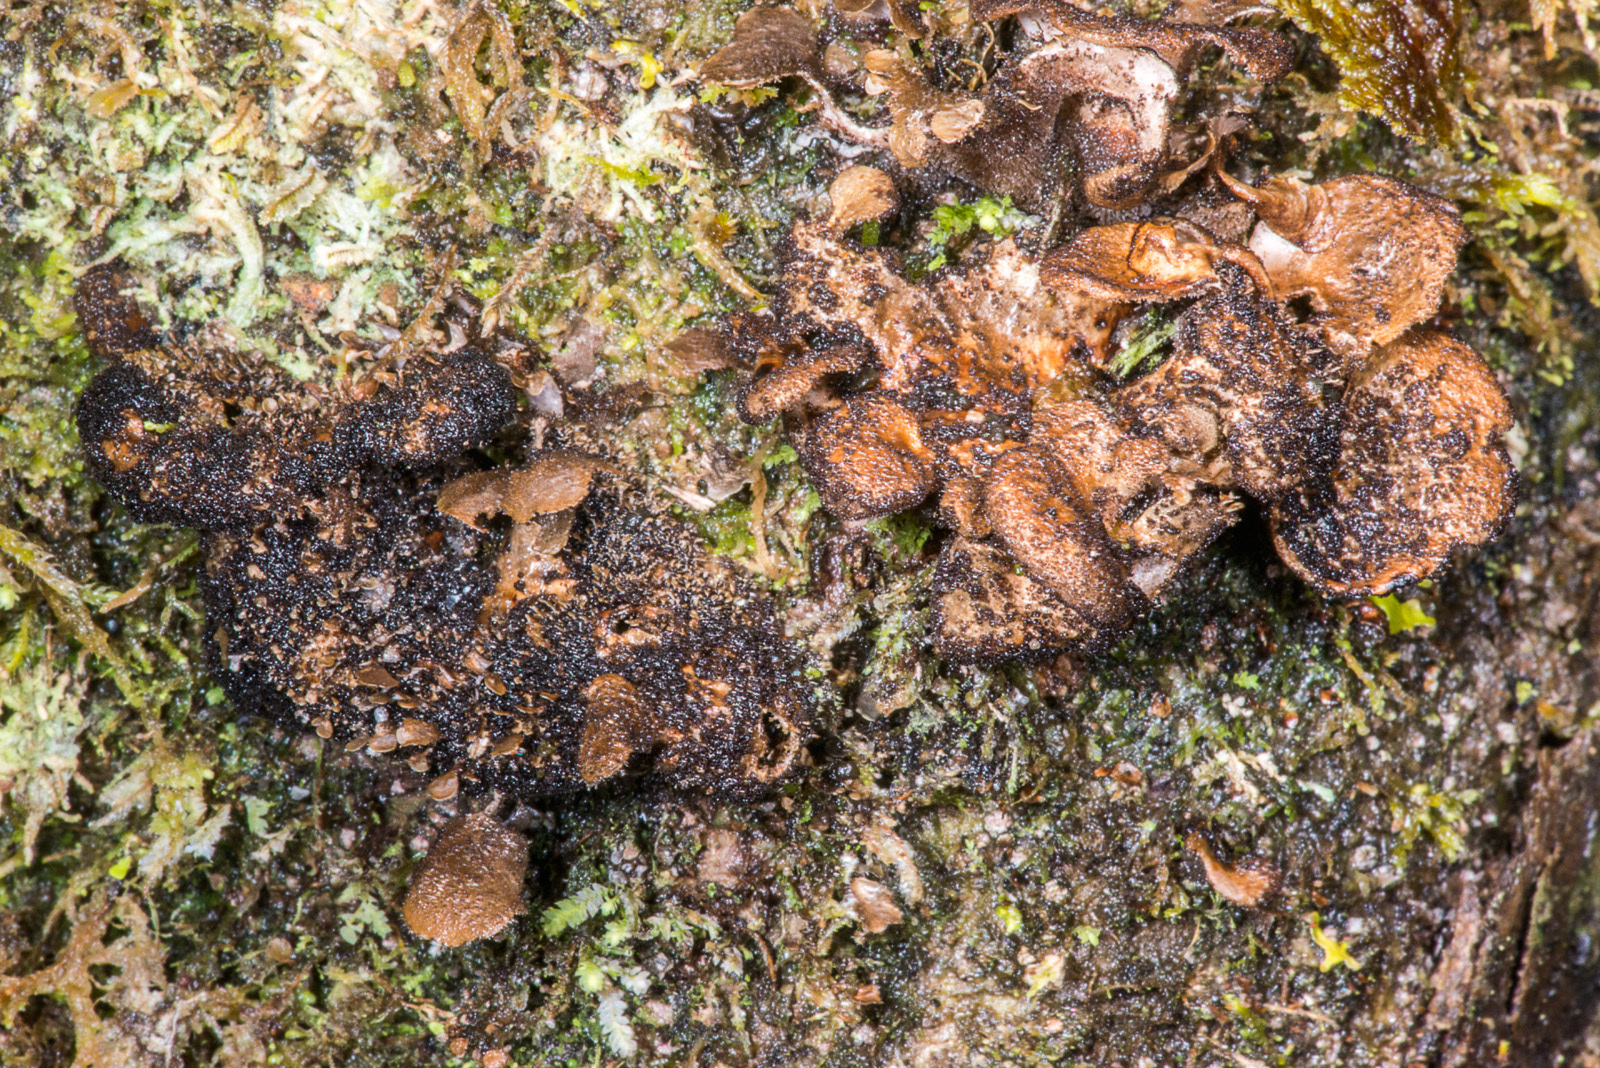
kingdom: Fungi
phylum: Ascomycota
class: Lecanoromycetes
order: Peltigerales
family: Lobariaceae
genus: Sticta
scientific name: Sticta fuliginoides
